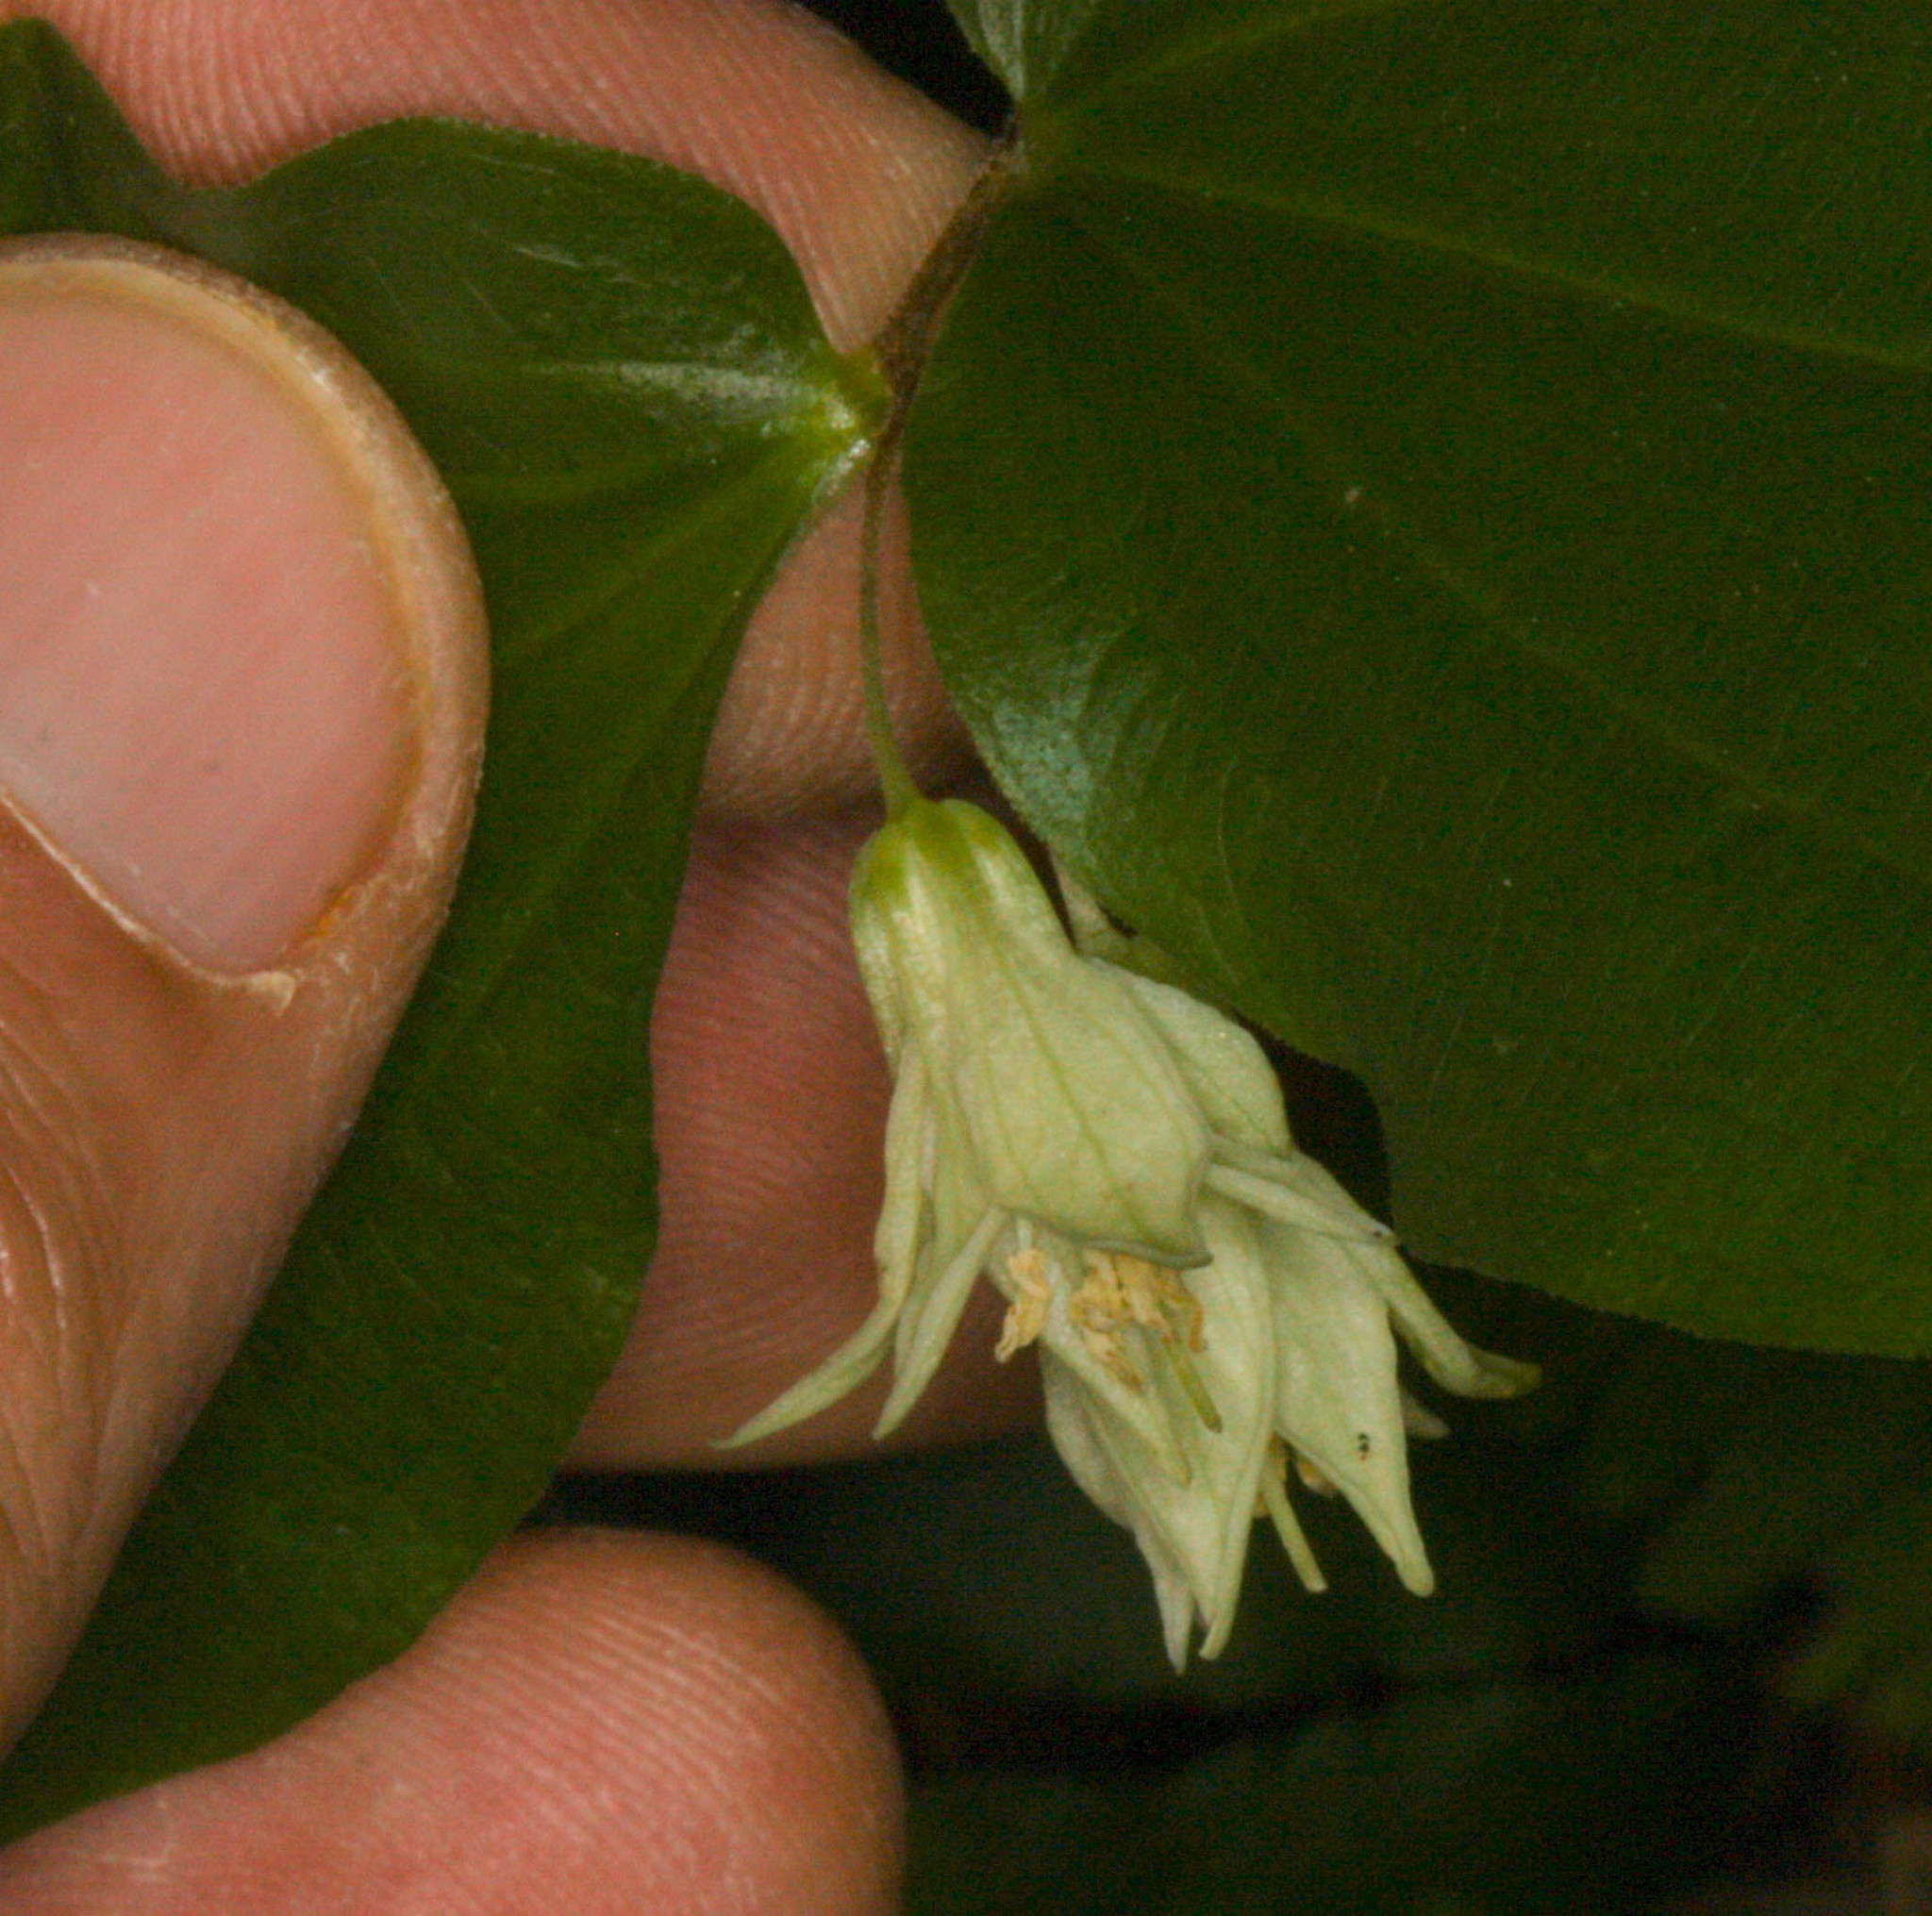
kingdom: Plantae
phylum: Tracheophyta
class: Liliopsida
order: Liliales
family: Liliaceae
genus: Prosartes
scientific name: Prosartes hookeri
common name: Fairy-bells
